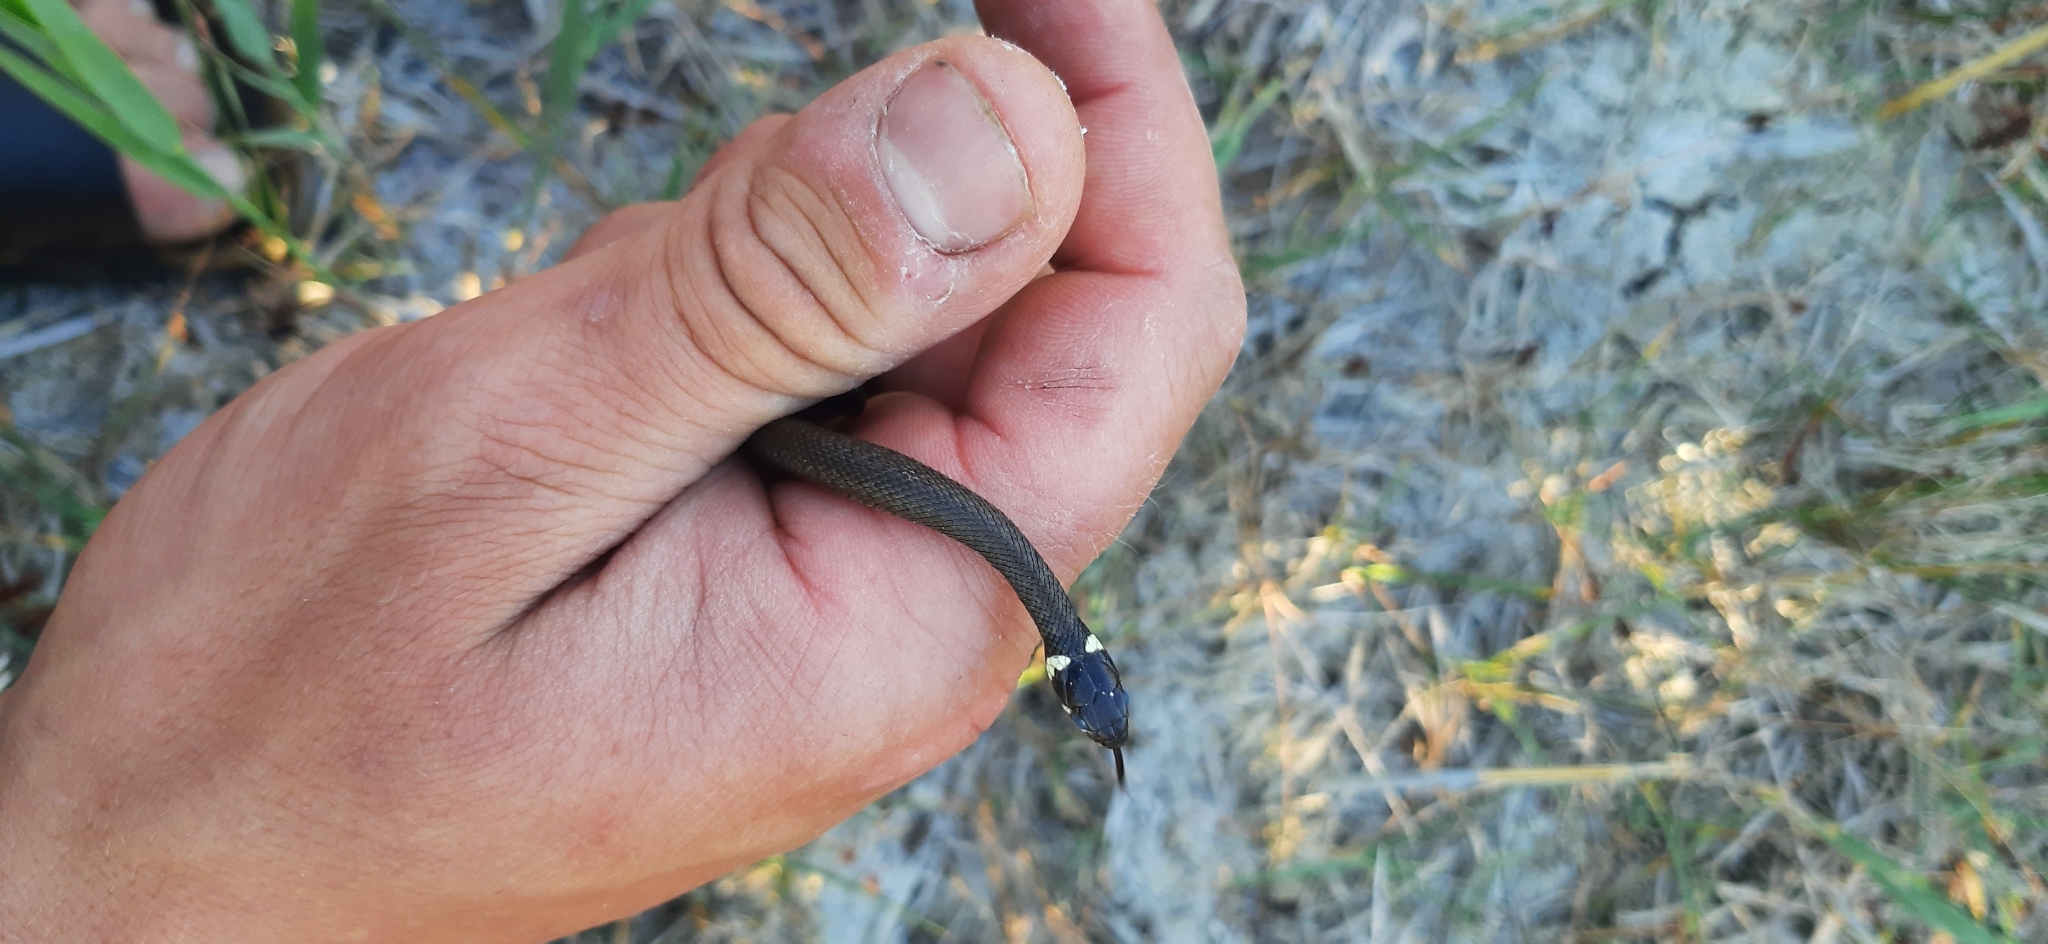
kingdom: Animalia
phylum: Chordata
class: Squamata
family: Colubridae
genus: Natrix
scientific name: Natrix natrix
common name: Grass snake
